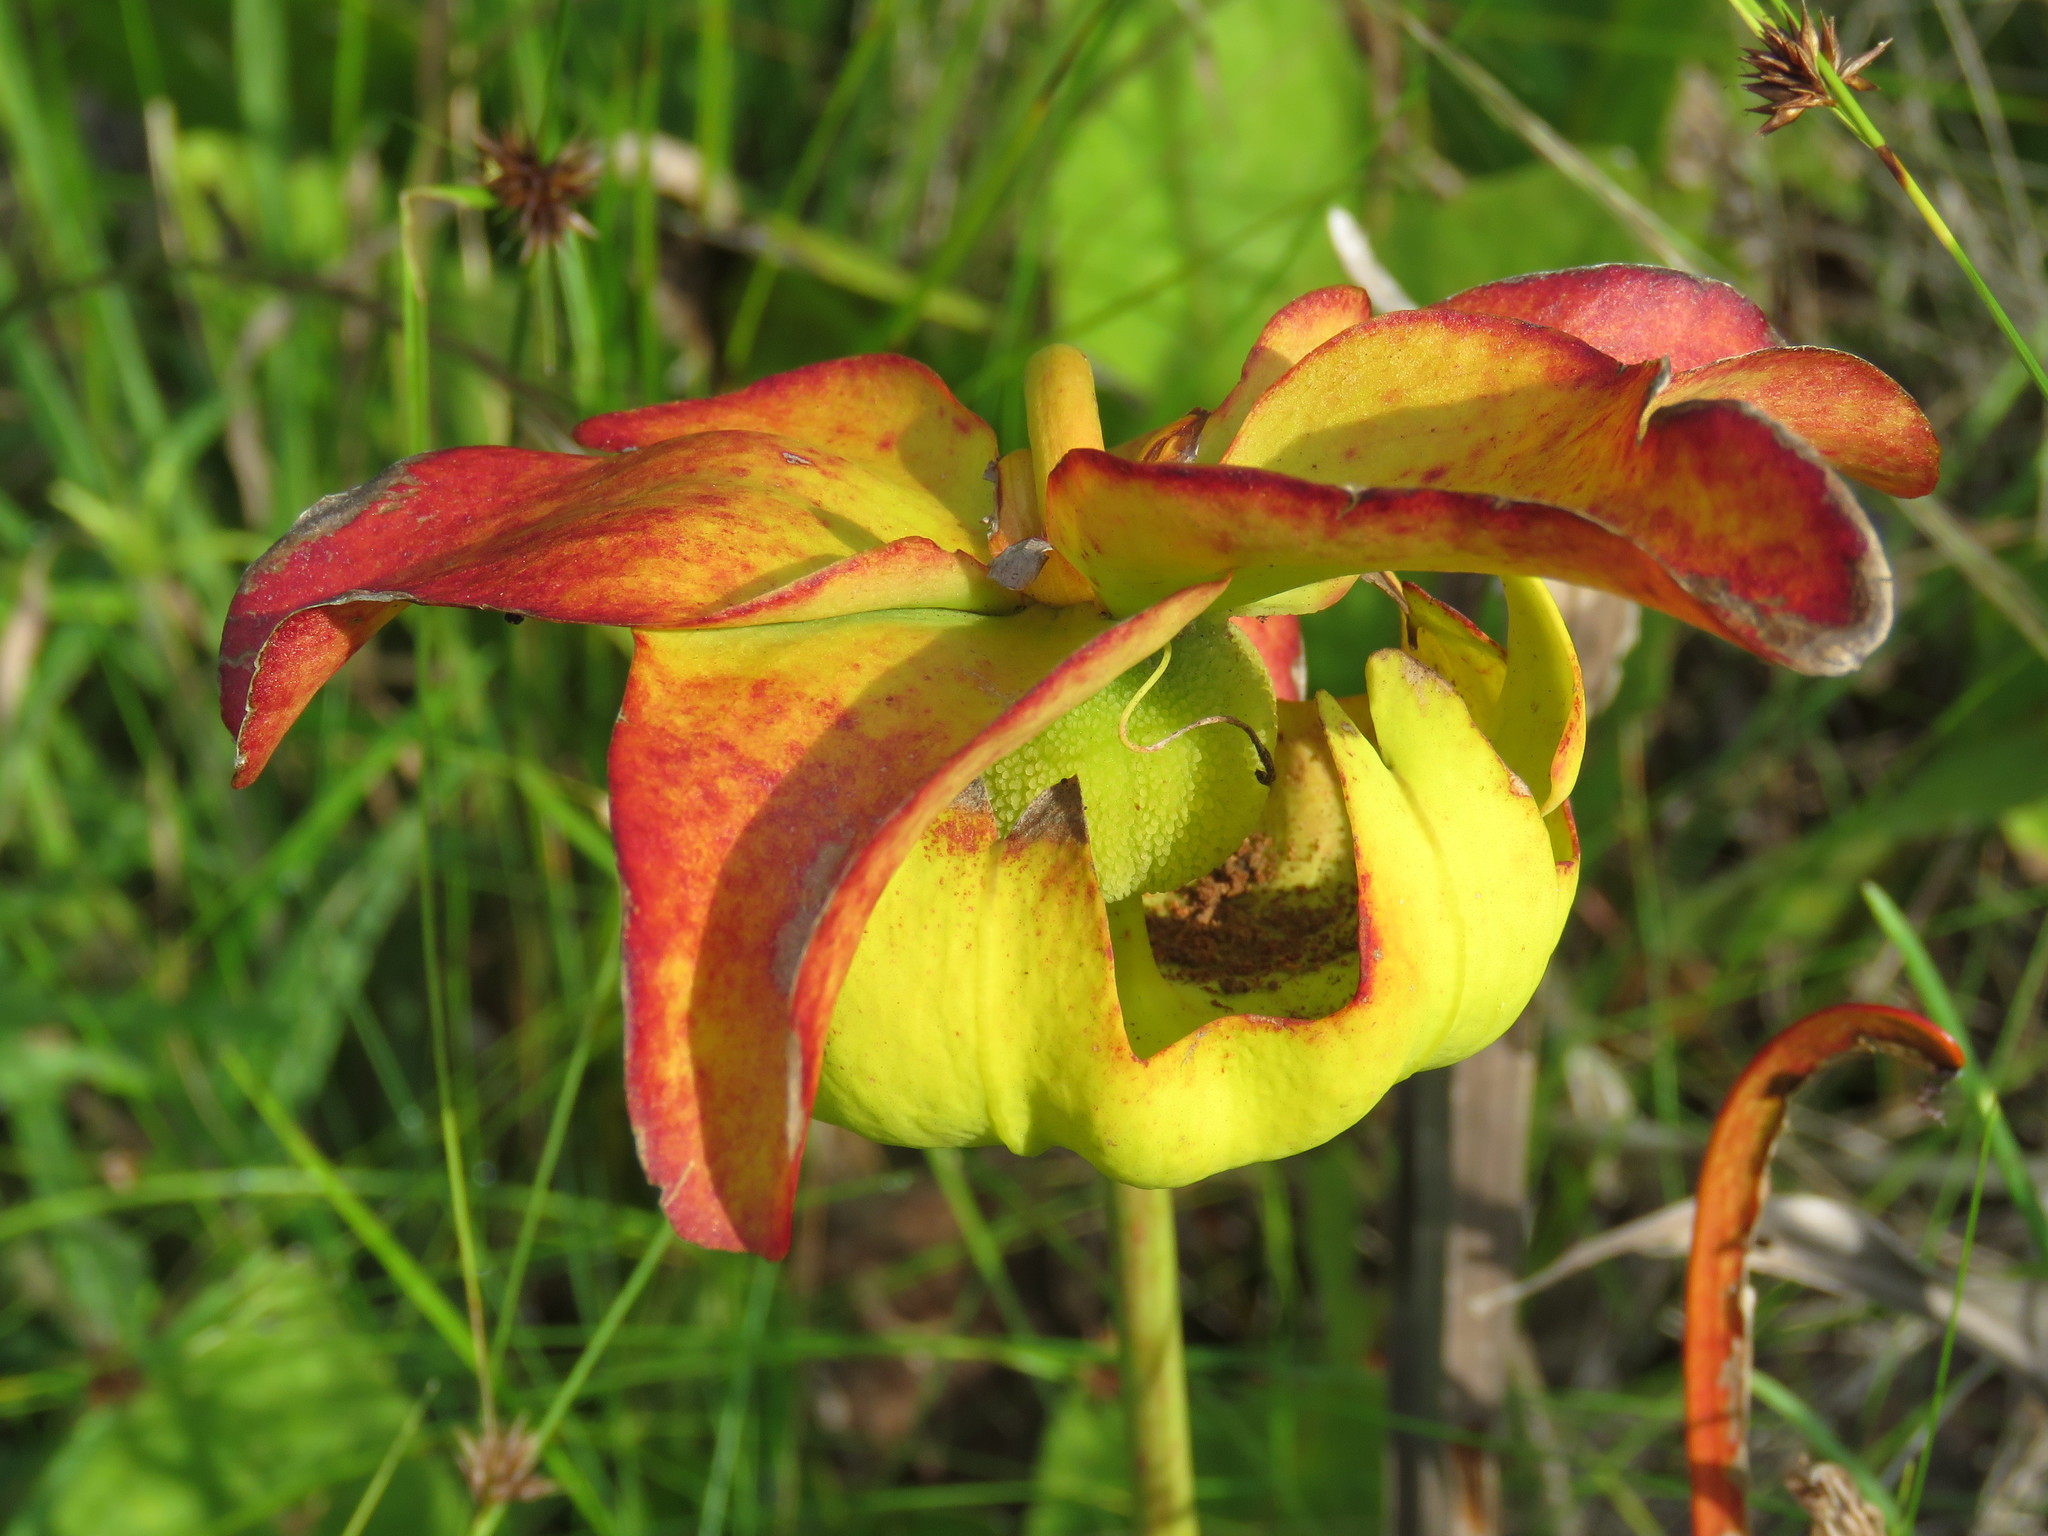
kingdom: Plantae
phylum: Tracheophyta
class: Magnoliopsida
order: Ericales
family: Sarraceniaceae
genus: Sarracenia
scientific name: Sarracenia alata
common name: Yellow trumpets
